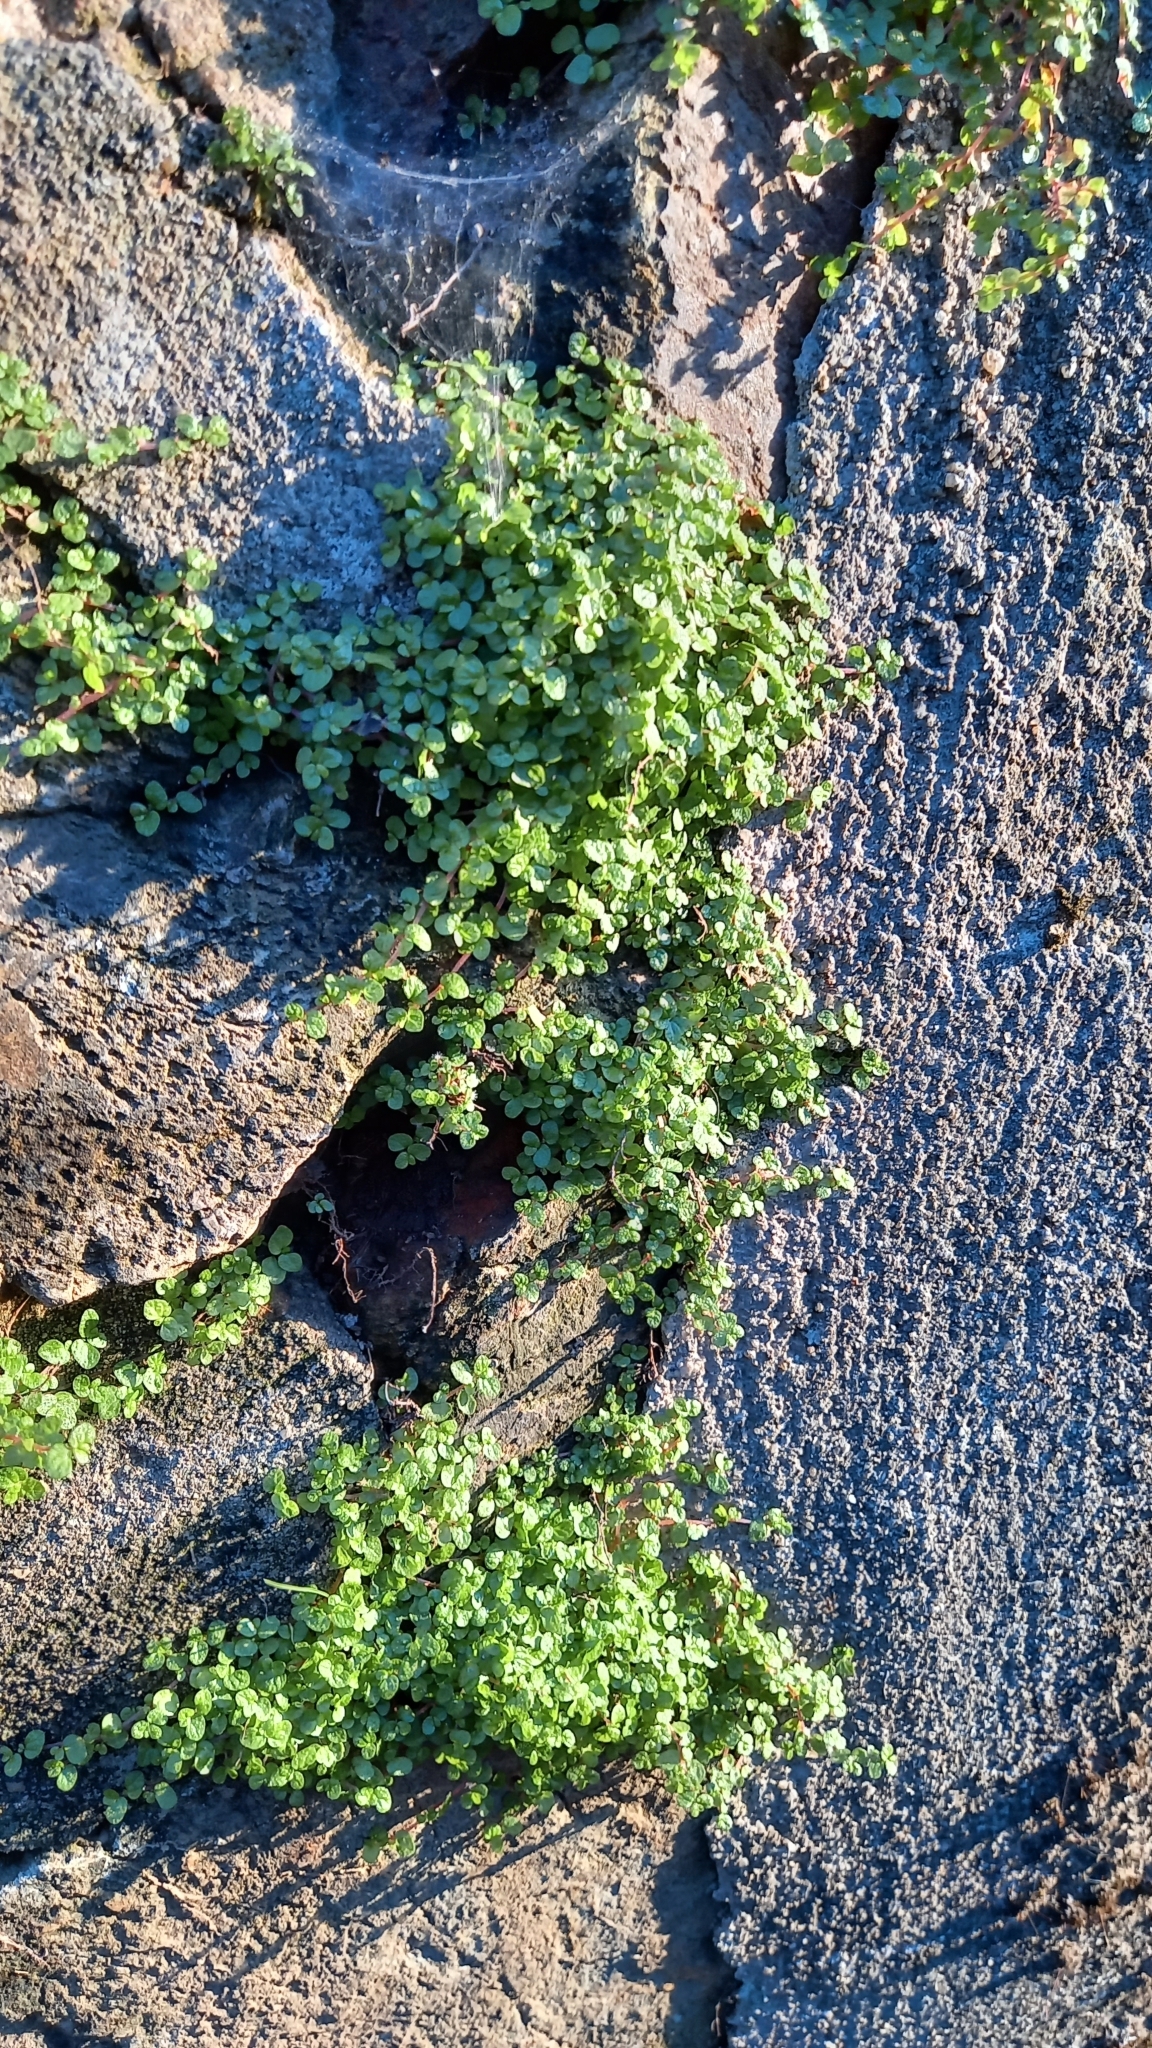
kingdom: Plantae
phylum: Tracheophyta
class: Magnoliopsida
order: Rosales
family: Urticaceae
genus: Soleirolia
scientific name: Soleirolia soleirolii
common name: Mind-your-own-business
